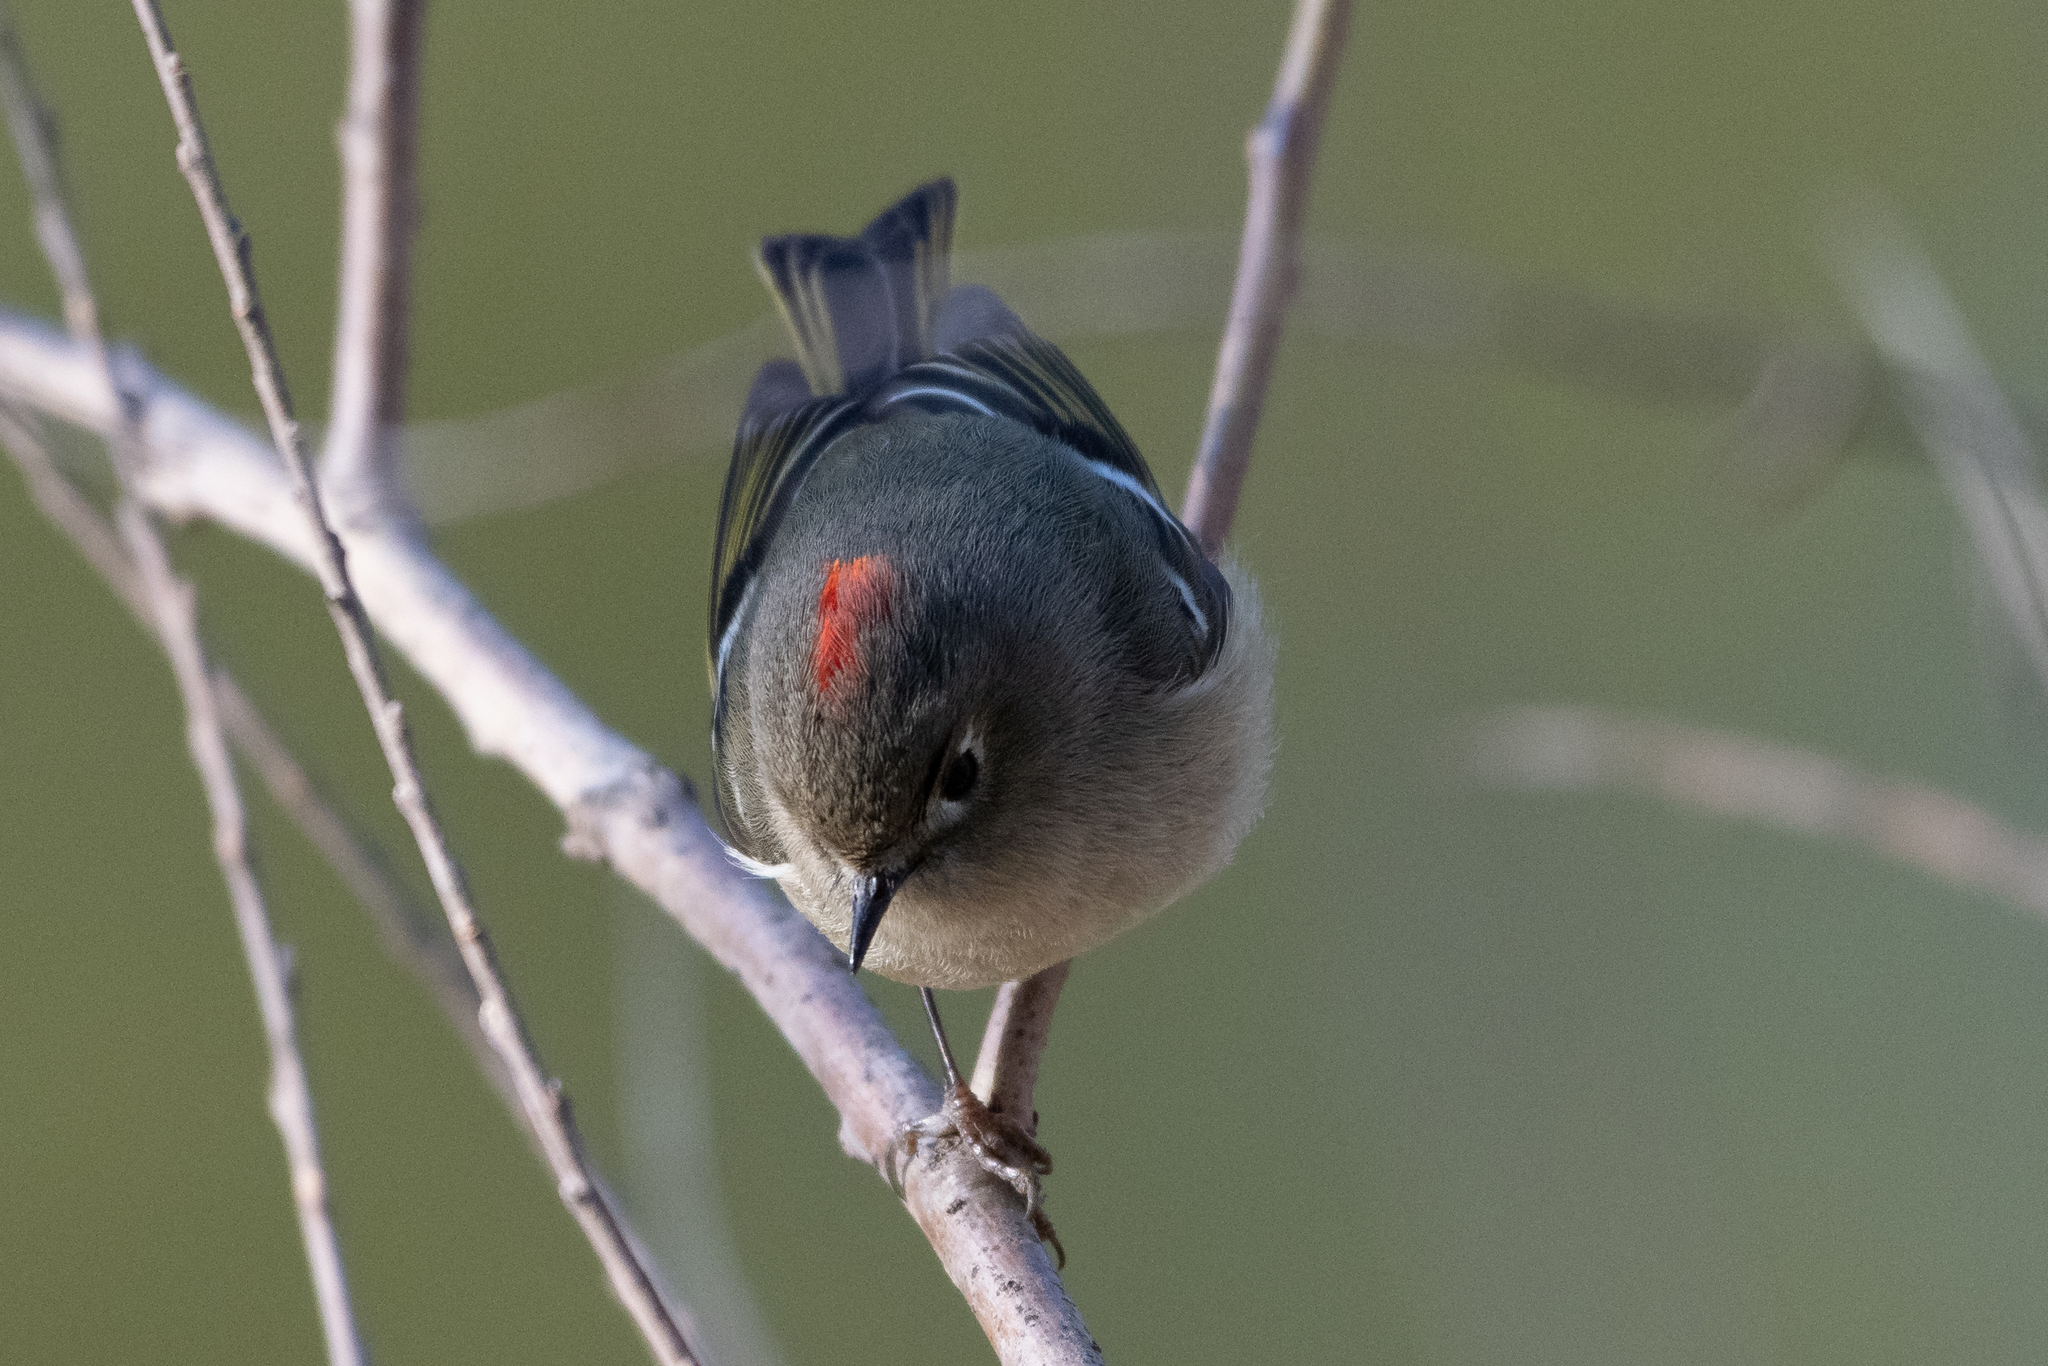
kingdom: Animalia
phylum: Chordata
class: Aves
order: Passeriformes
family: Regulidae
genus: Regulus
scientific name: Regulus calendula
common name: Ruby-crowned kinglet
